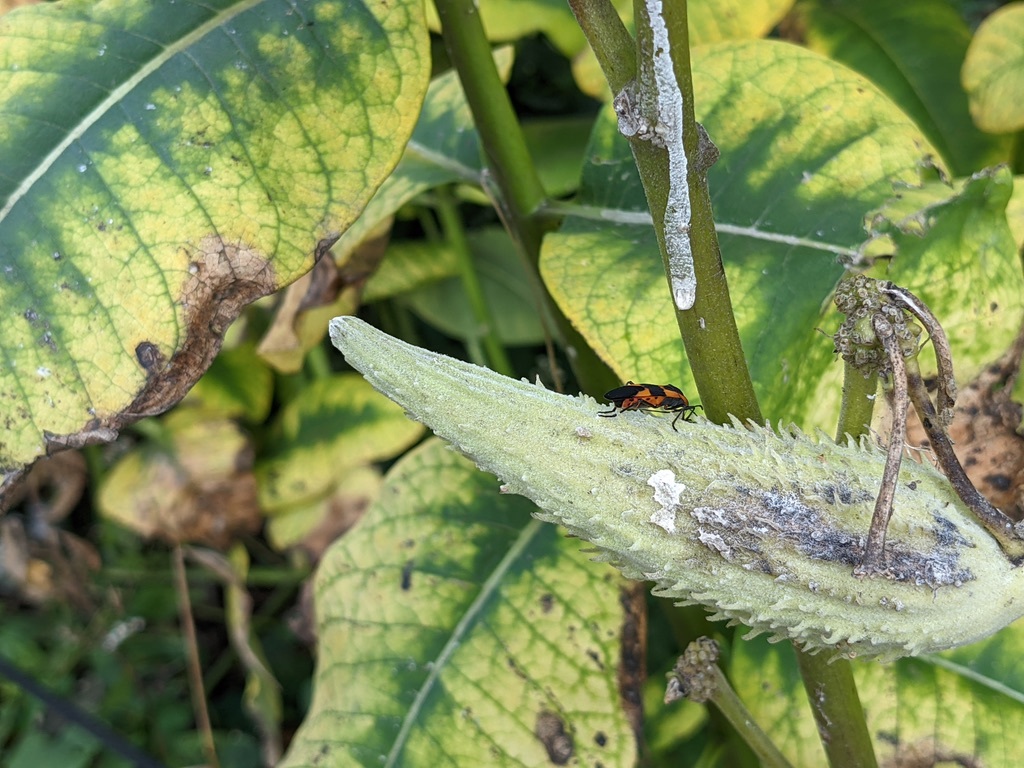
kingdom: Animalia
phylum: Arthropoda
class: Insecta
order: Hemiptera
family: Lygaeidae
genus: Oncopeltus
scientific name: Oncopeltus fasciatus
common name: Large milkweed bug
